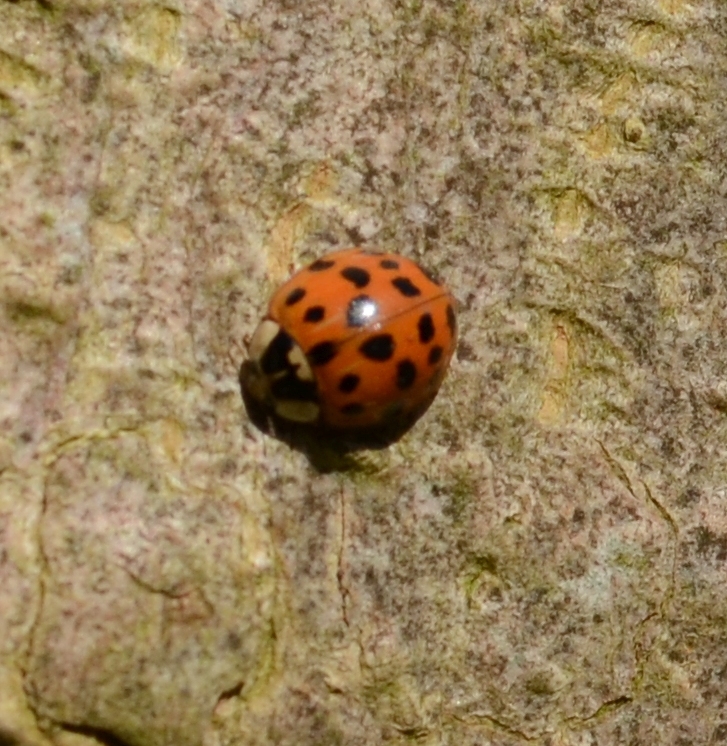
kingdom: Animalia
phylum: Arthropoda
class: Insecta
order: Coleoptera
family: Coccinellidae
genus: Harmonia
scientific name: Harmonia axyridis
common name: Harlequin ladybird
